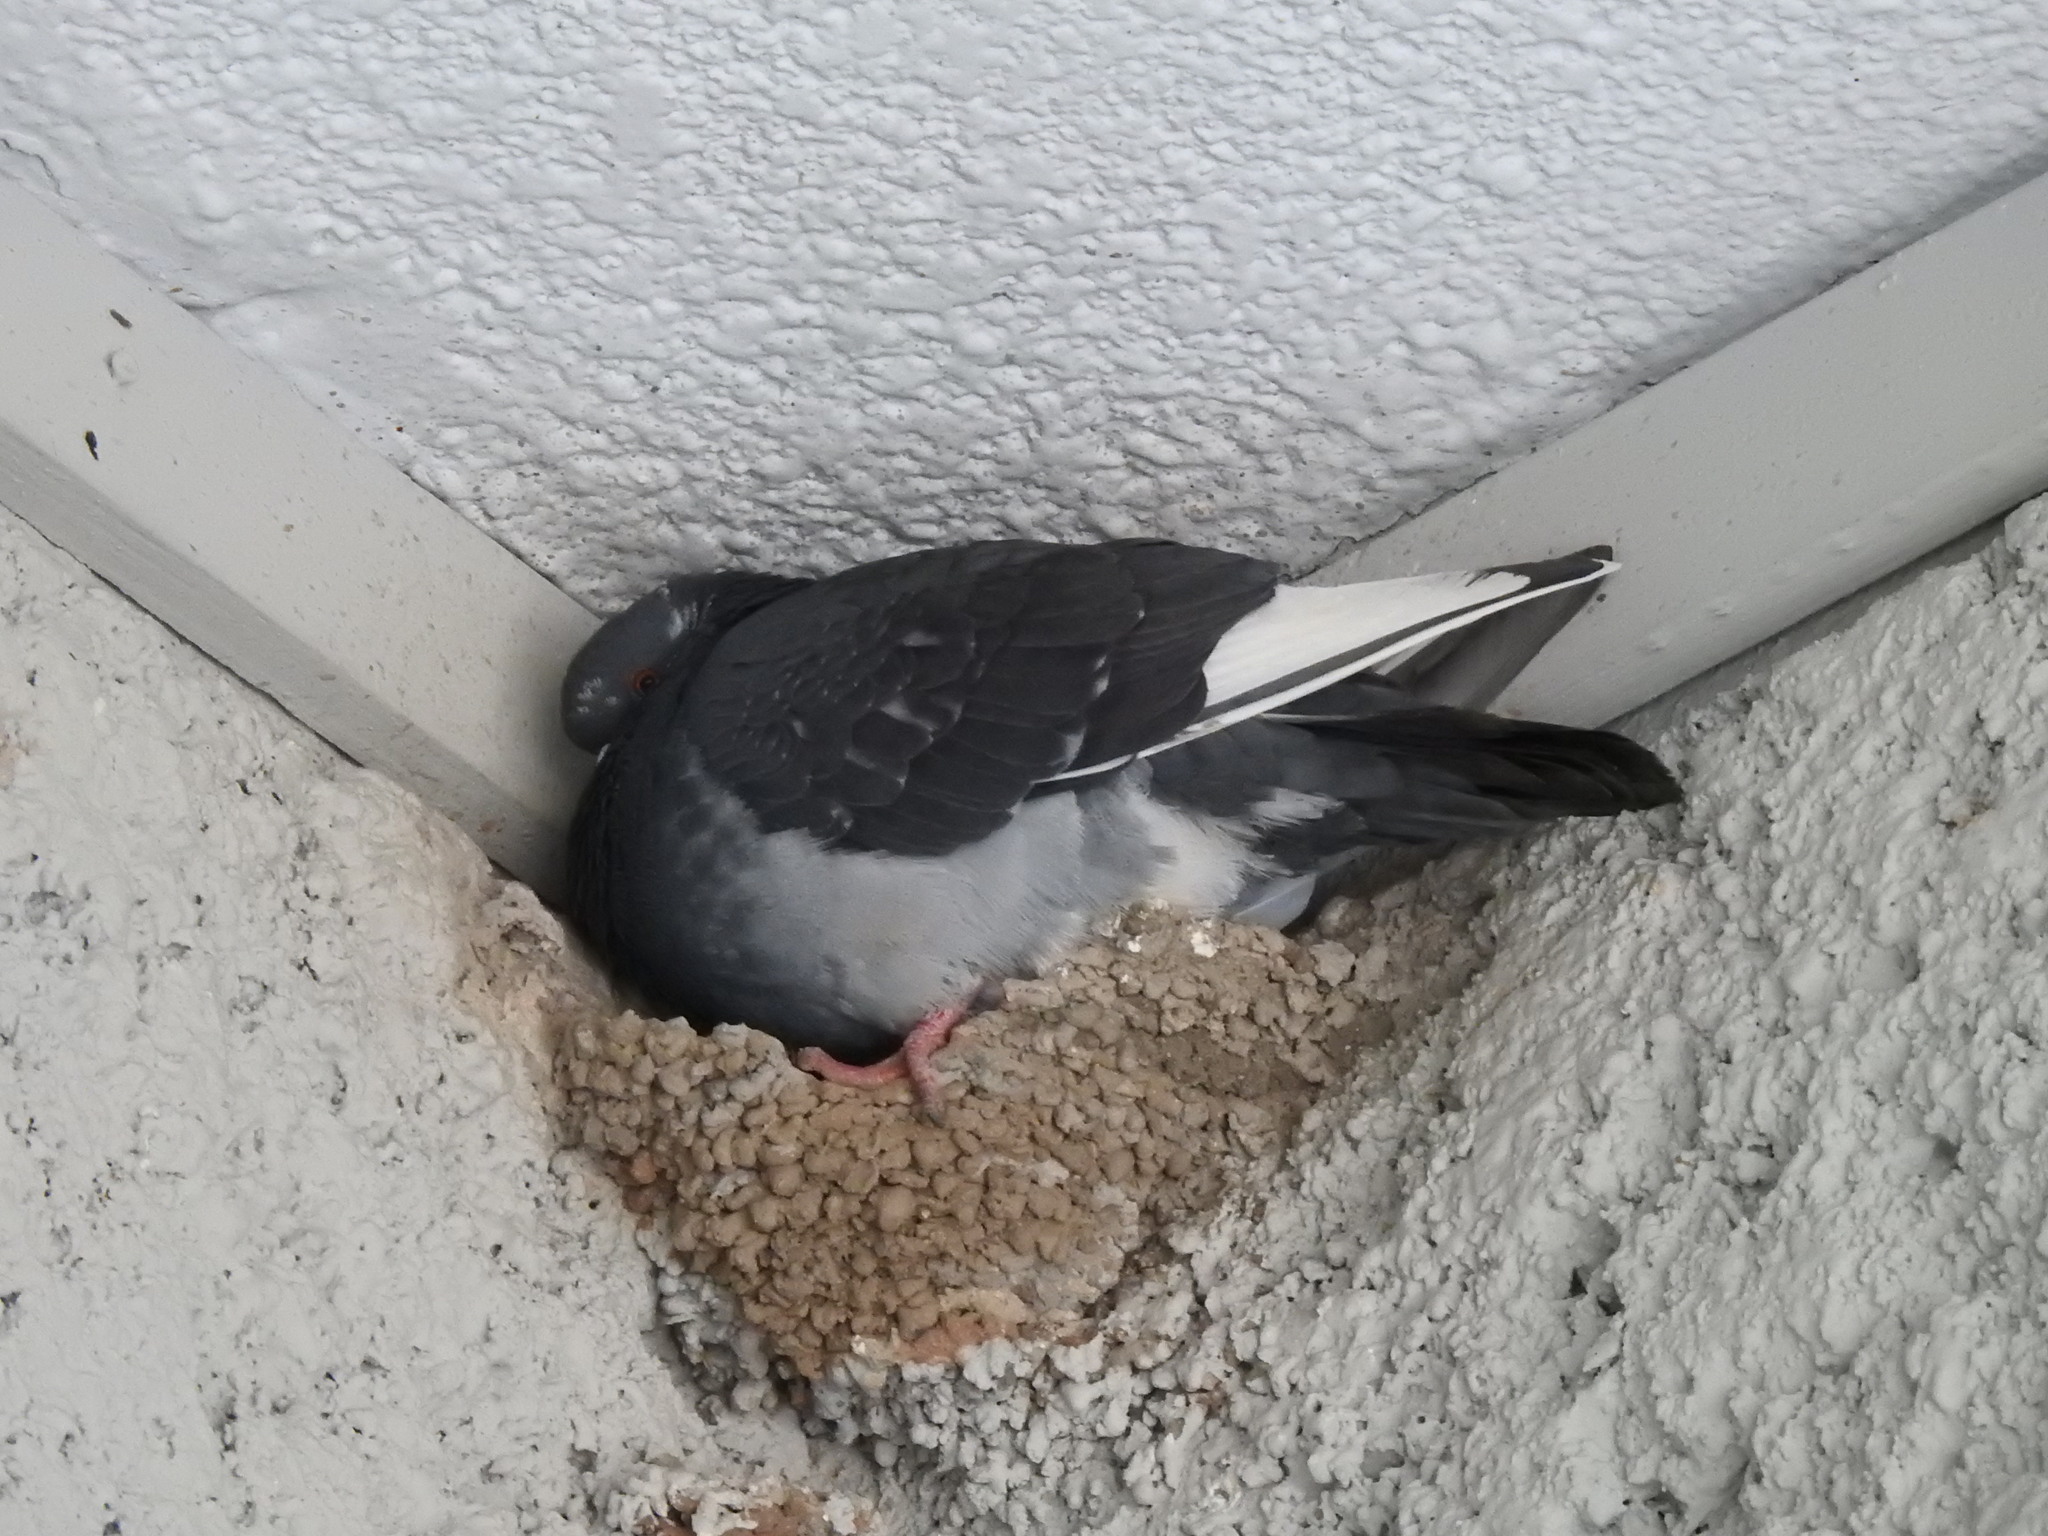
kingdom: Animalia
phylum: Chordata
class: Aves
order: Columbiformes
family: Columbidae
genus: Columba
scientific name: Columba livia
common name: Rock pigeon
